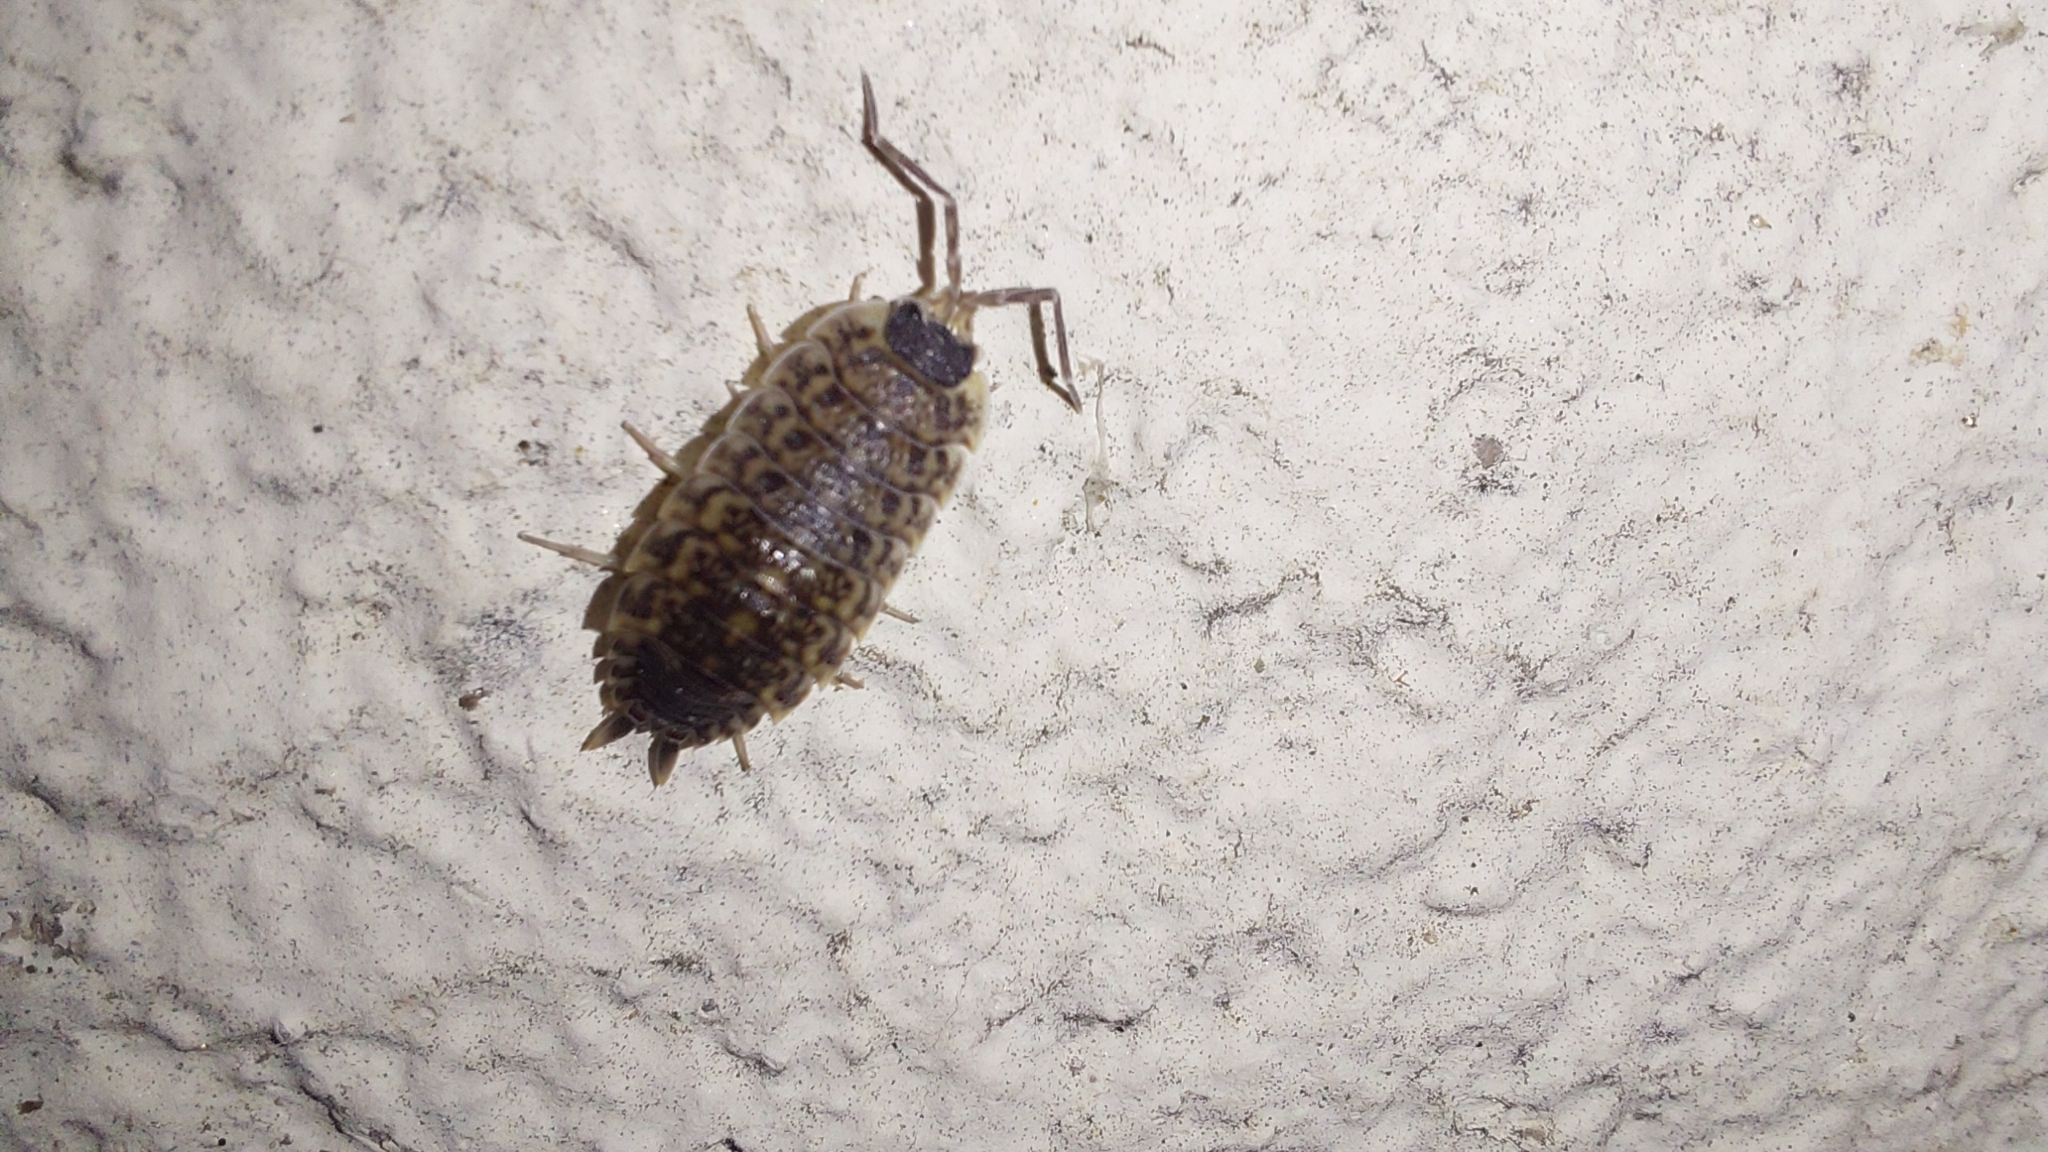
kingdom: Animalia
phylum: Arthropoda
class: Malacostraca
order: Isopoda
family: Porcellionidae
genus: Porcellio
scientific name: Porcellio spinicornis
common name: Painted woodlouse
